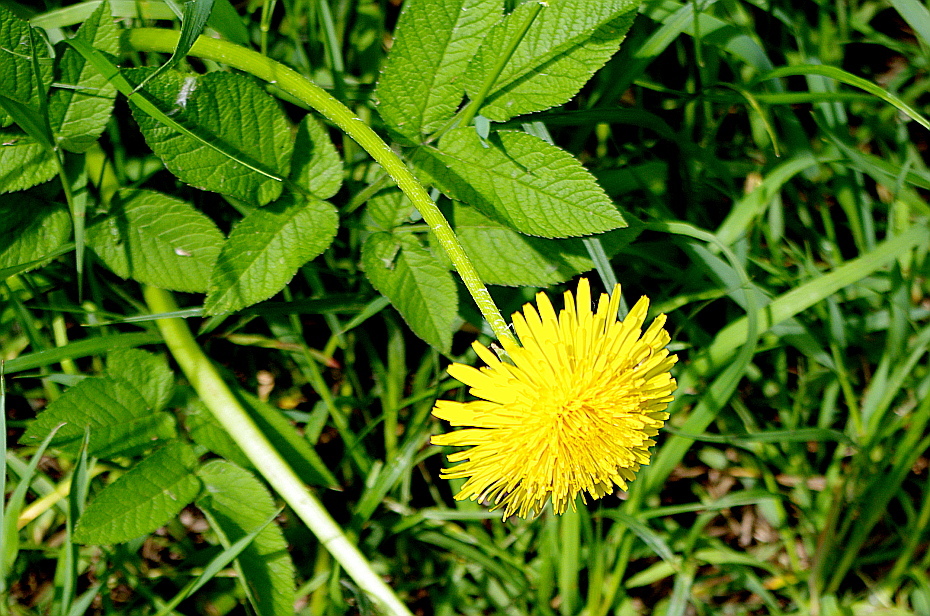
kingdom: Plantae
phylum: Tracheophyta
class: Magnoliopsida
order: Asterales
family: Asteraceae
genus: Taraxacum
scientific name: Taraxacum officinale
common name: Common dandelion
